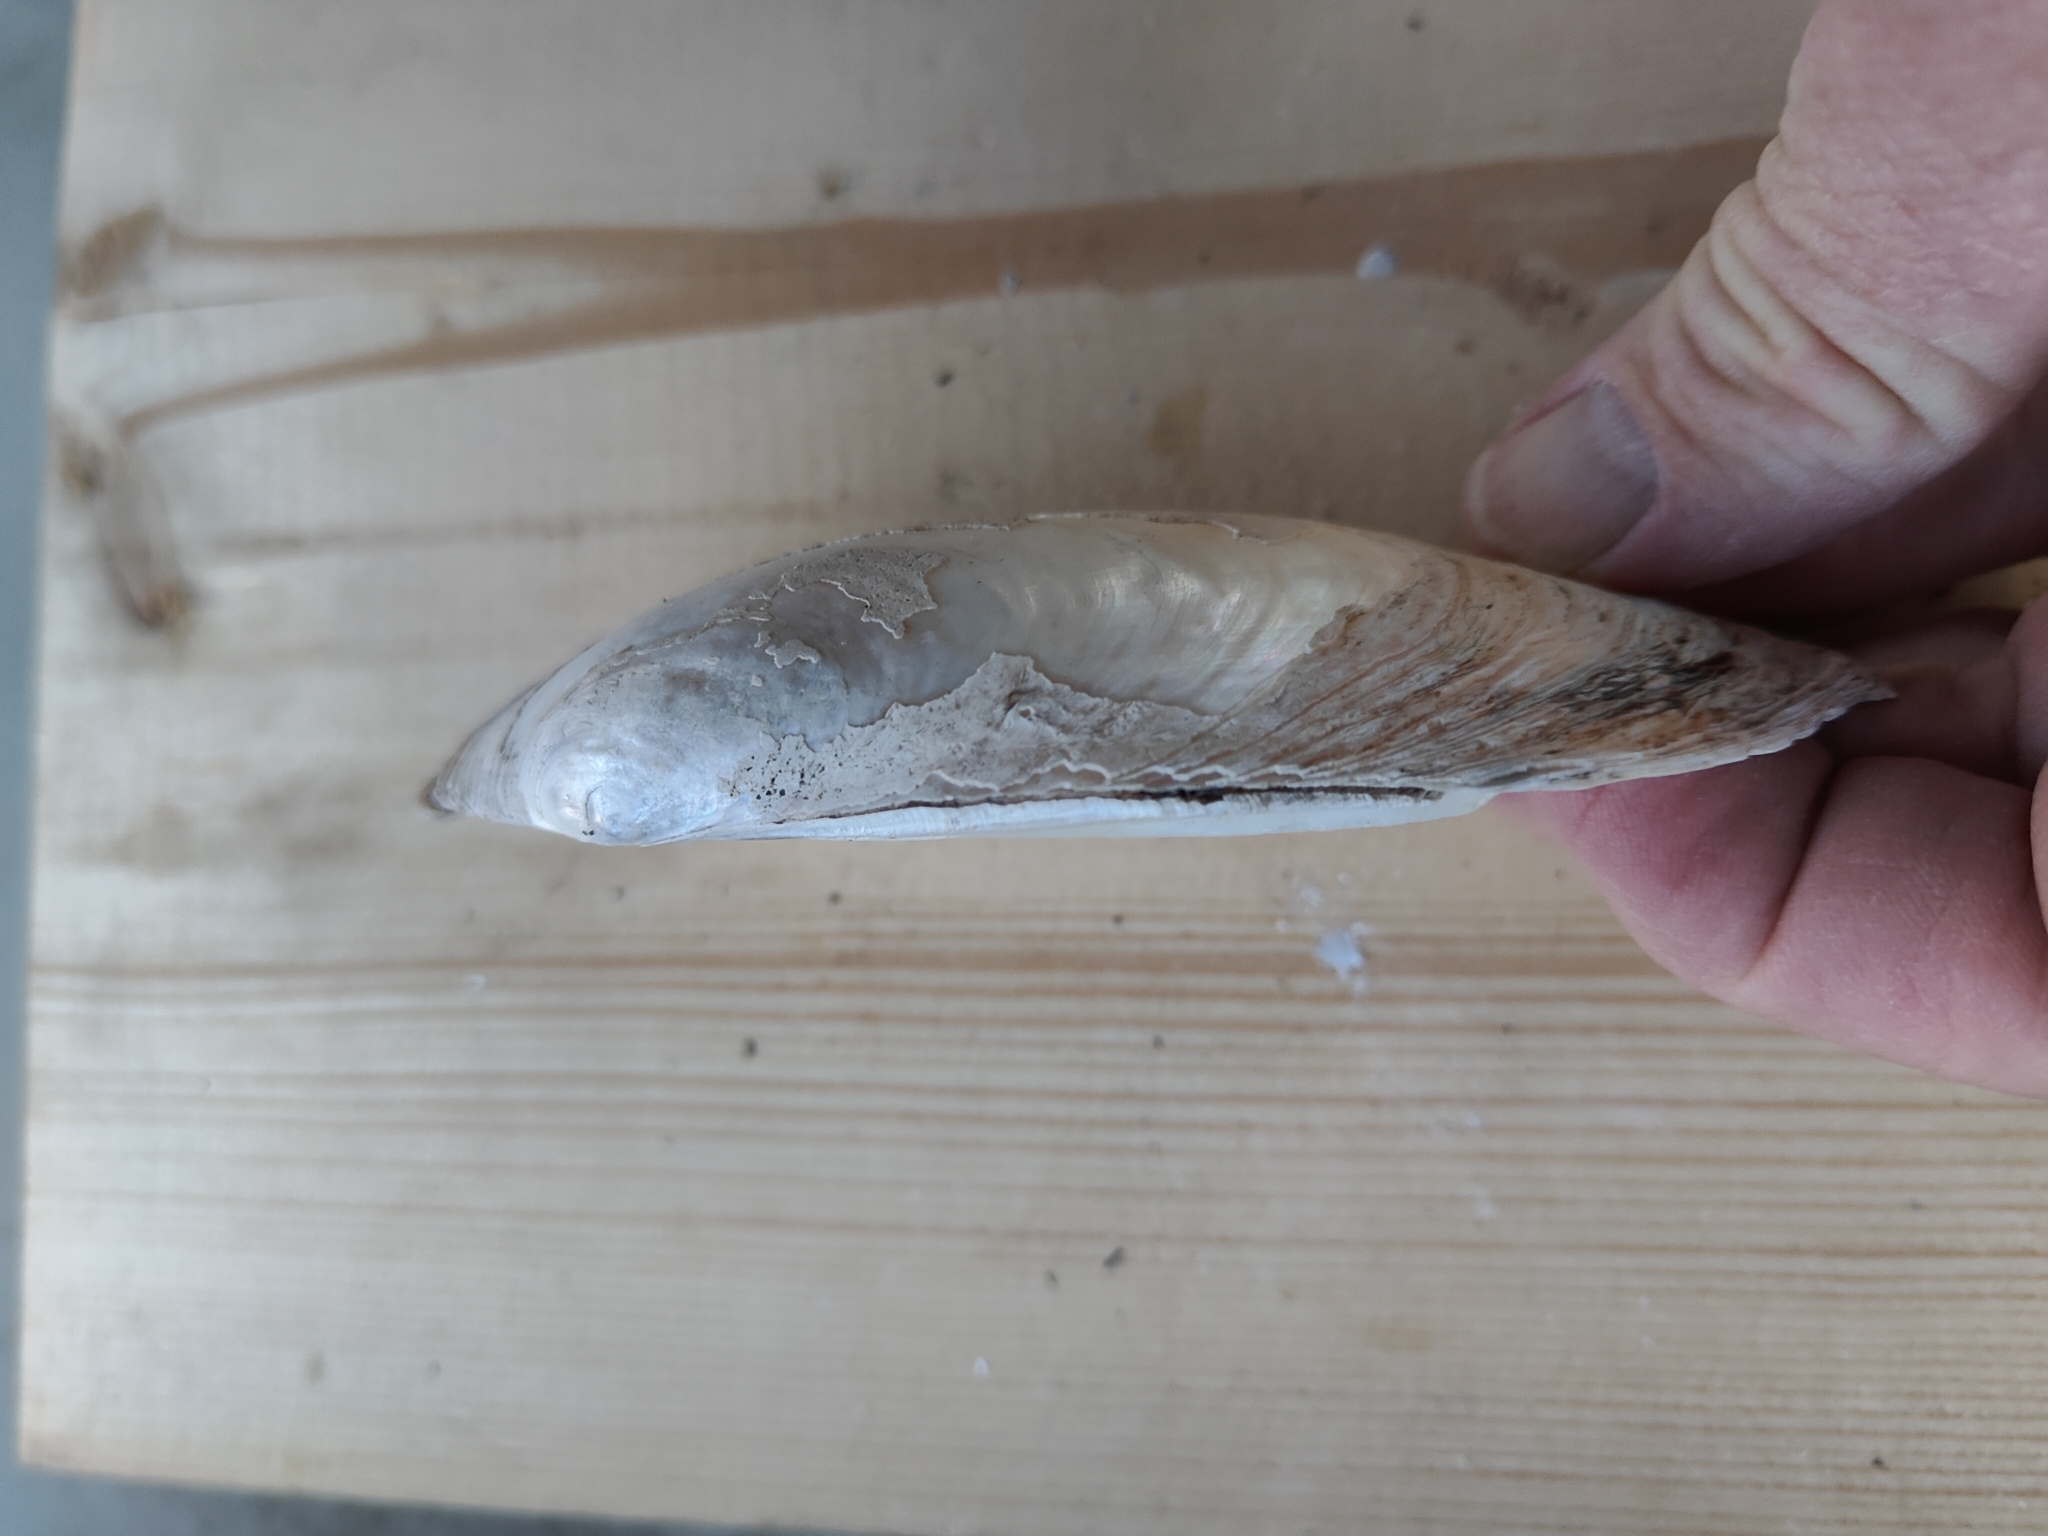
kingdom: Animalia
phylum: Mollusca
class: Bivalvia
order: Unionida
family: Unionidae
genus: Lampsilis
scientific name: Lampsilis siliquoidea
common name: Fatmucket
